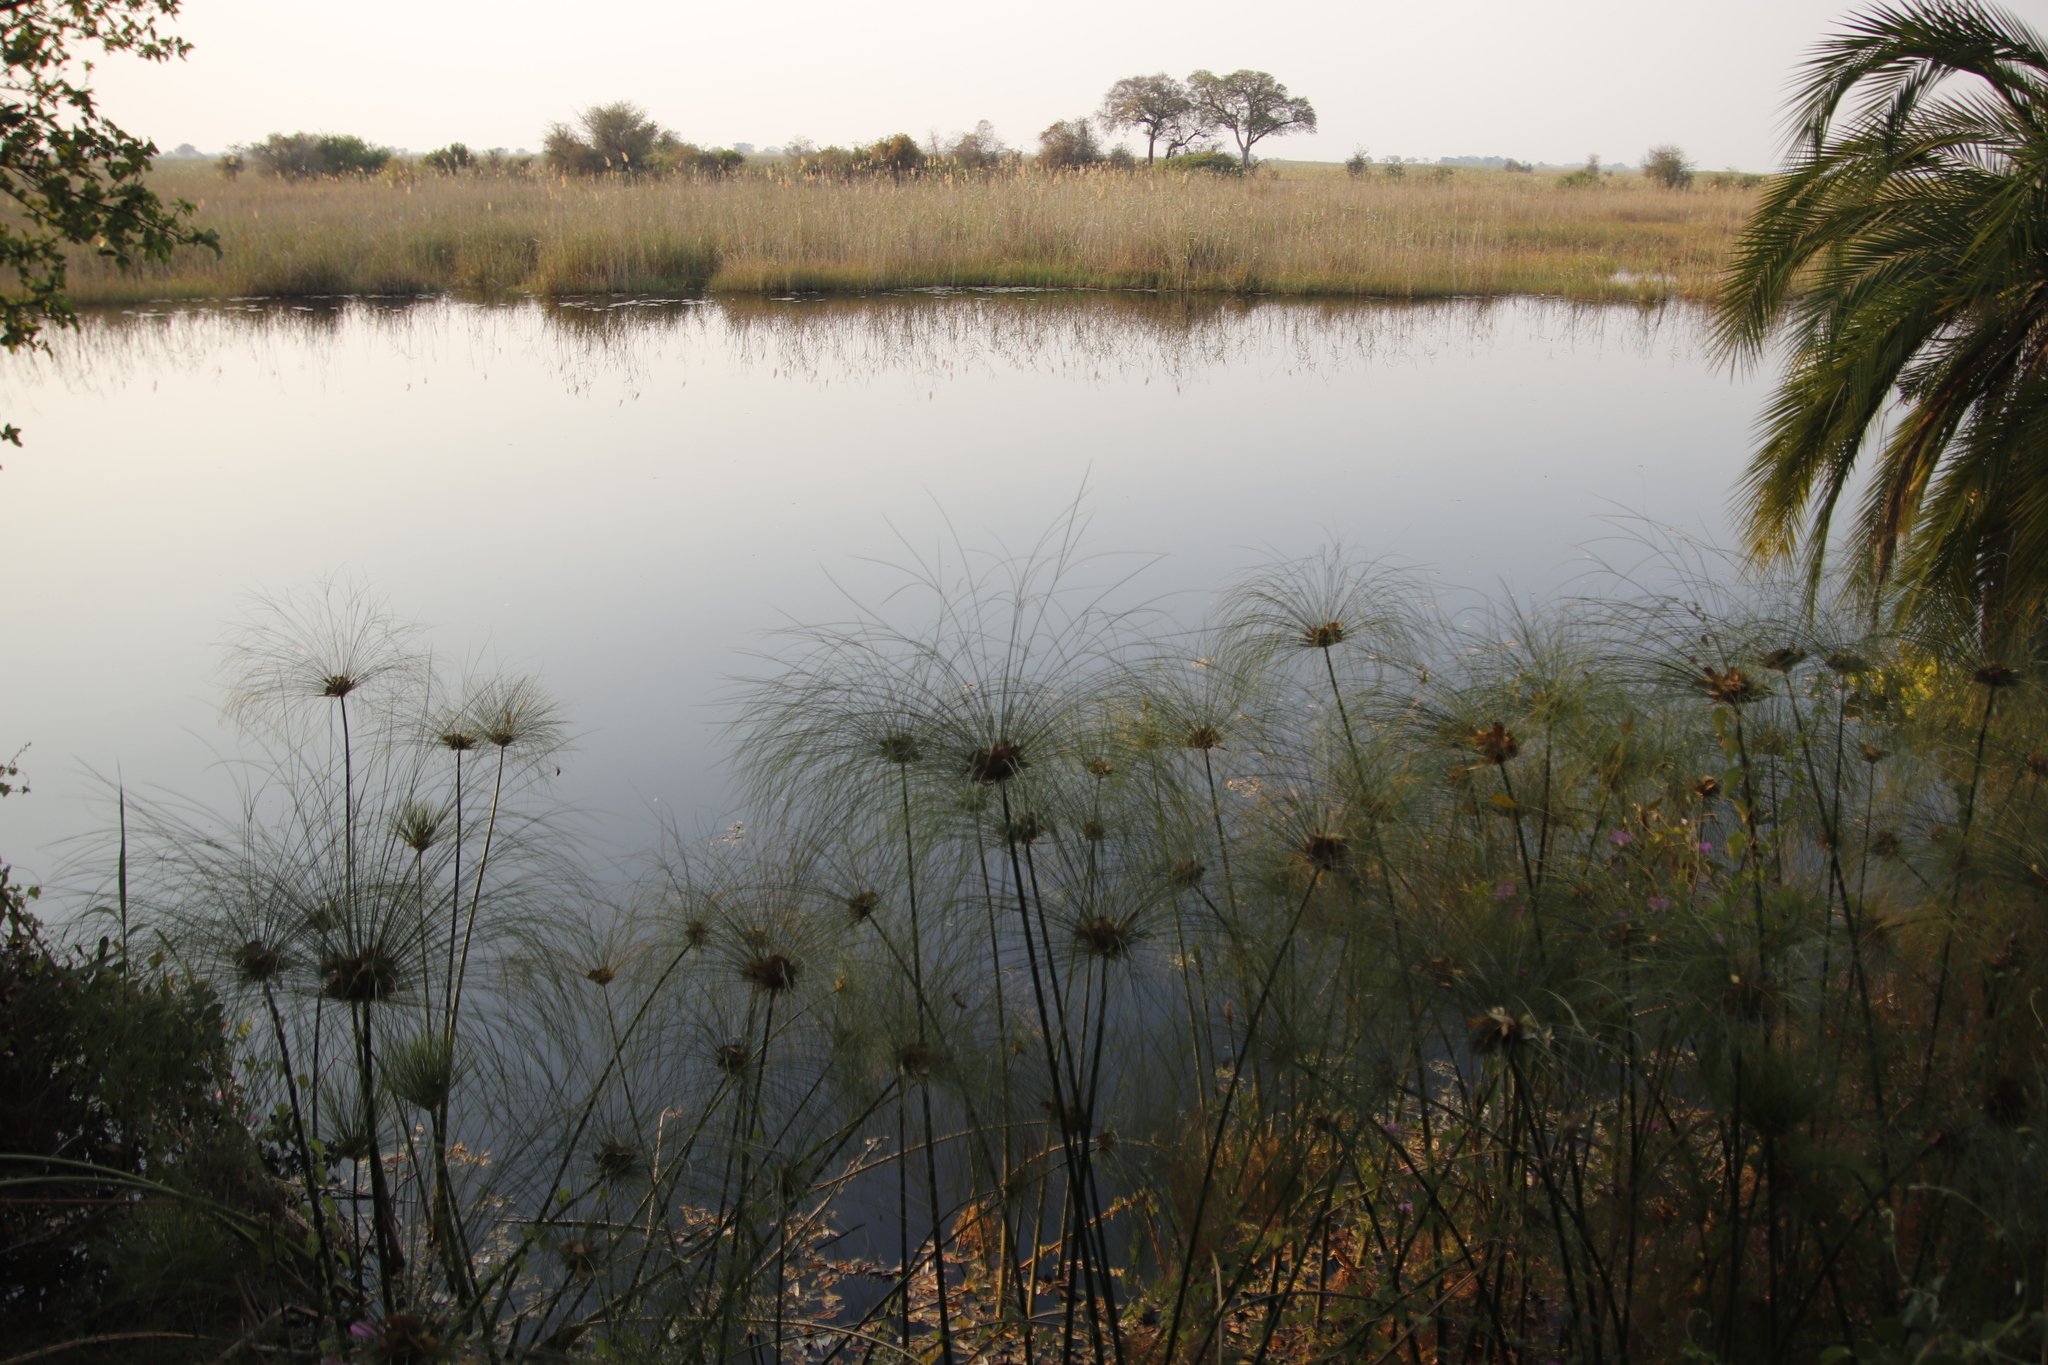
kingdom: Plantae
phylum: Tracheophyta
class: Liliopsida
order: Poales
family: Poaceae
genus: Phragmites
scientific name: Phragmites australis
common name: Common reed
